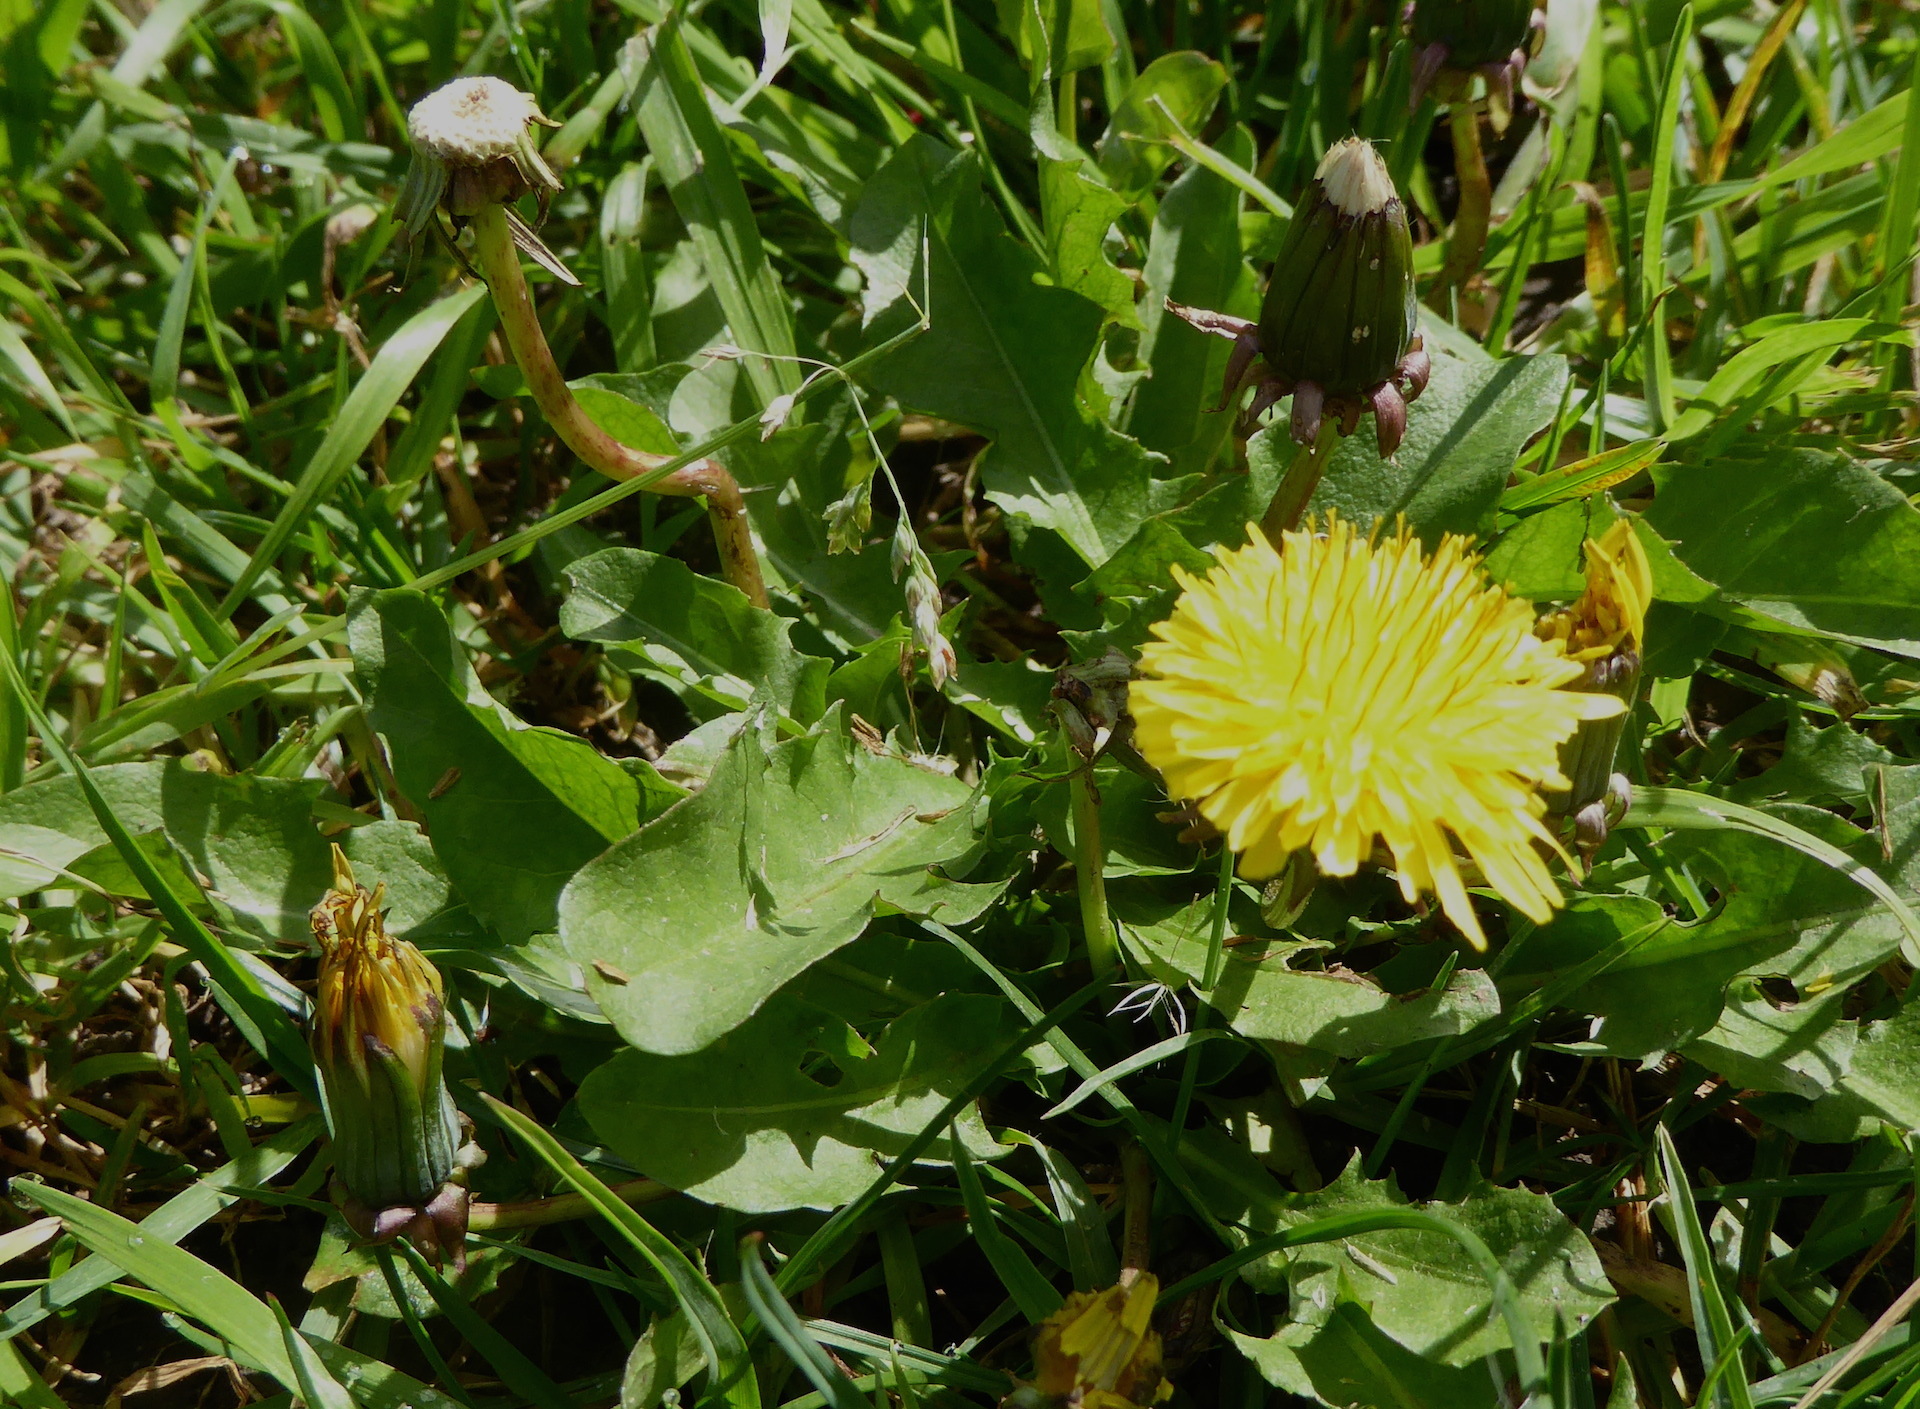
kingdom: Plantae
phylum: Tracheophyta
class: Magnoliopsida
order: Asterales
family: Asteraceae
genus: Taraxacum
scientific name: Taraxacum officinale
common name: Common dandelion
